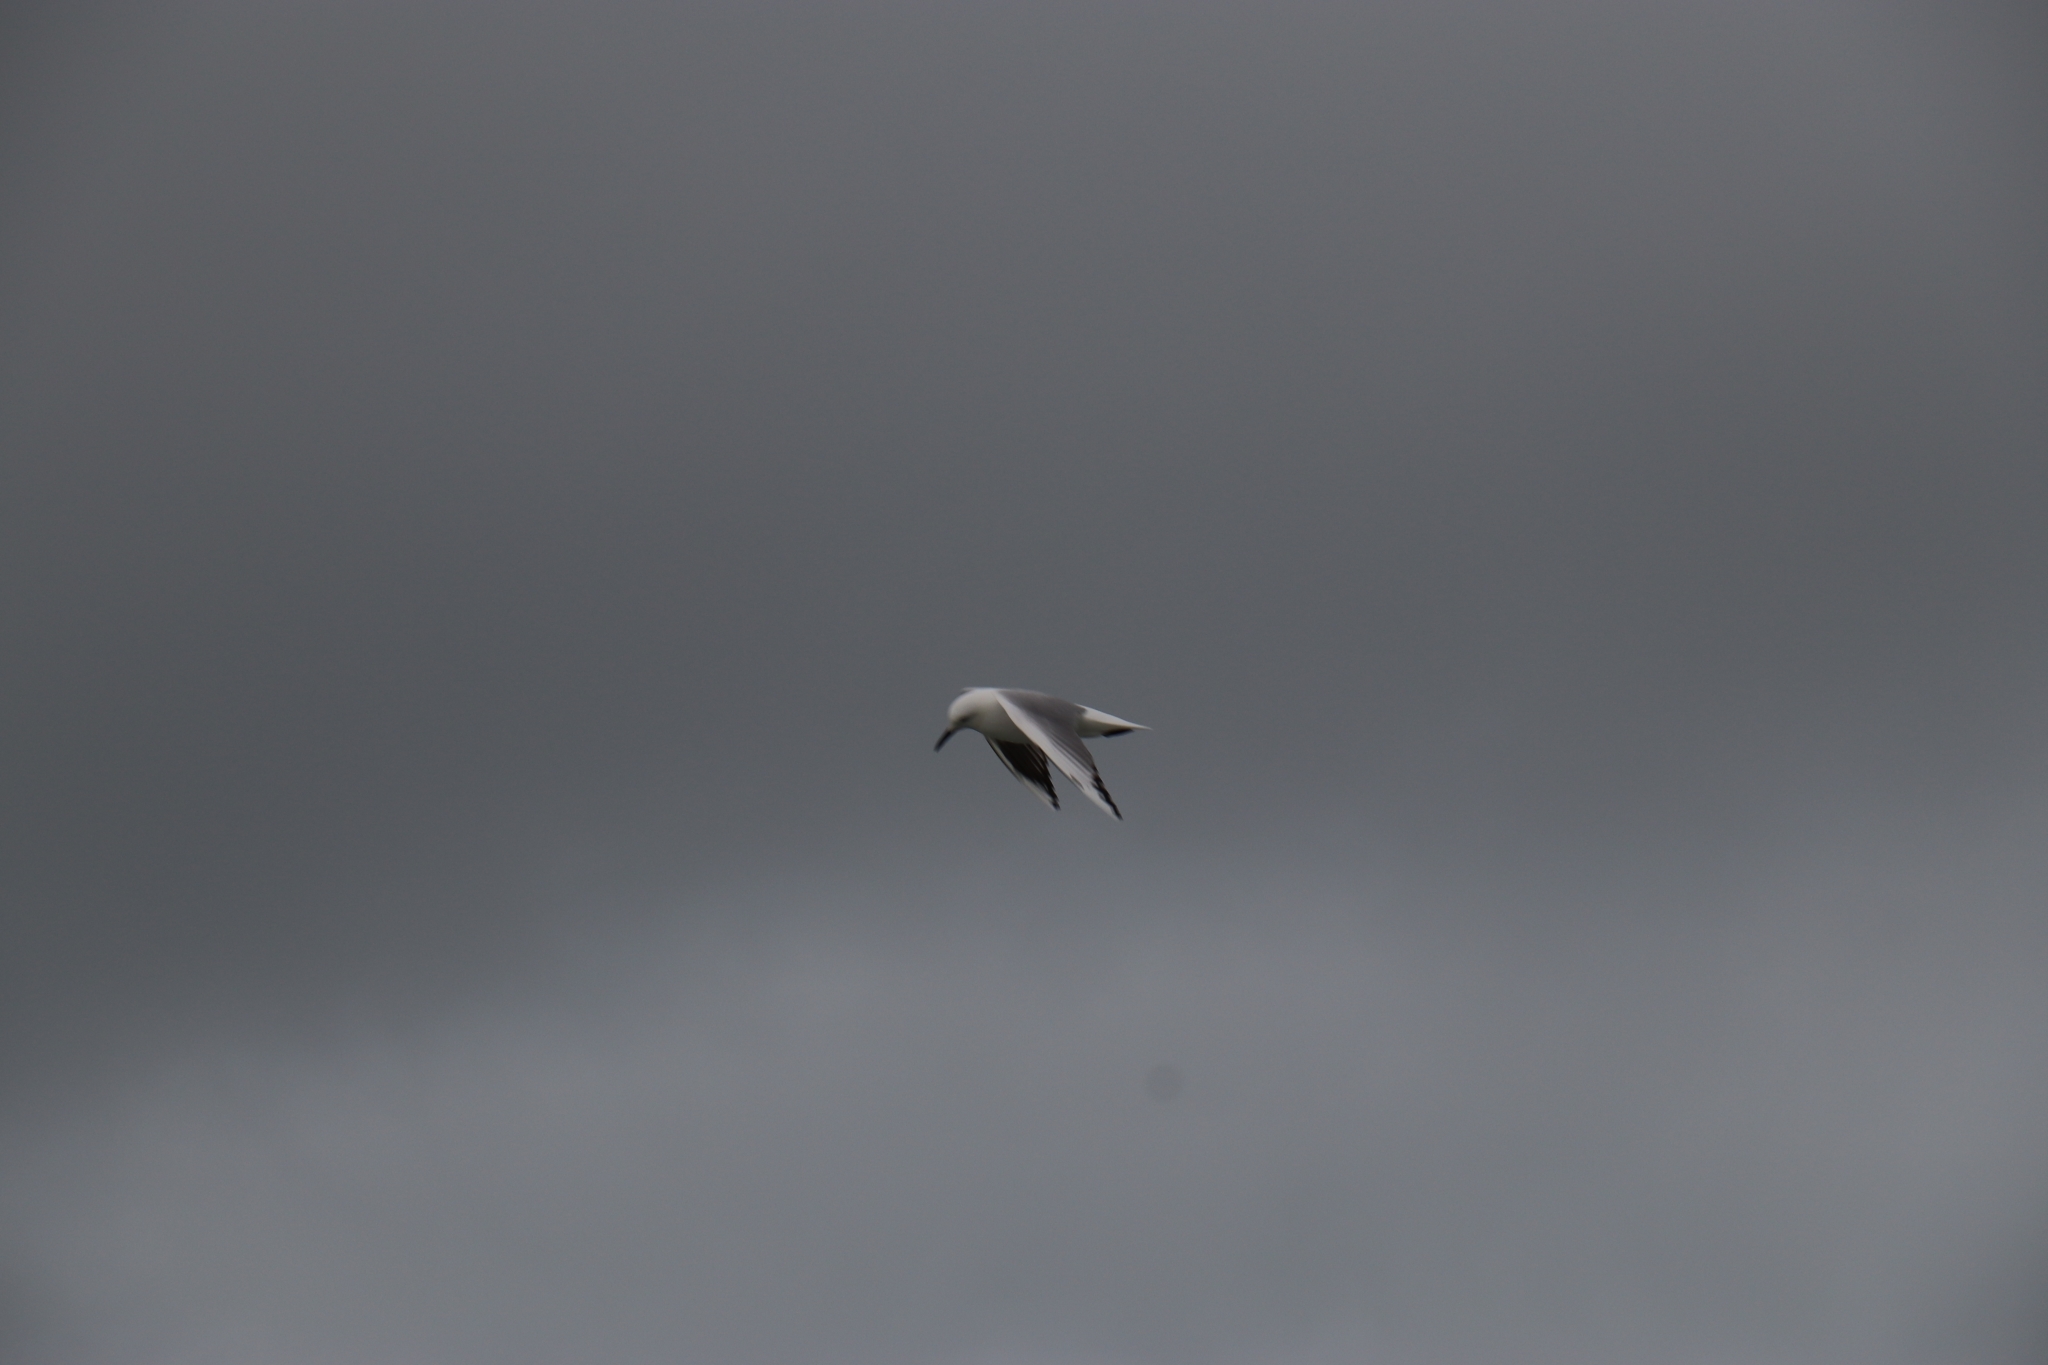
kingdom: Animalia
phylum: Chordata
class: Aves
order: Charadriiformes
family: Laridae
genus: Chroicocephalus
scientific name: Chroicocephalus bulleri
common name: Black-billed gull
